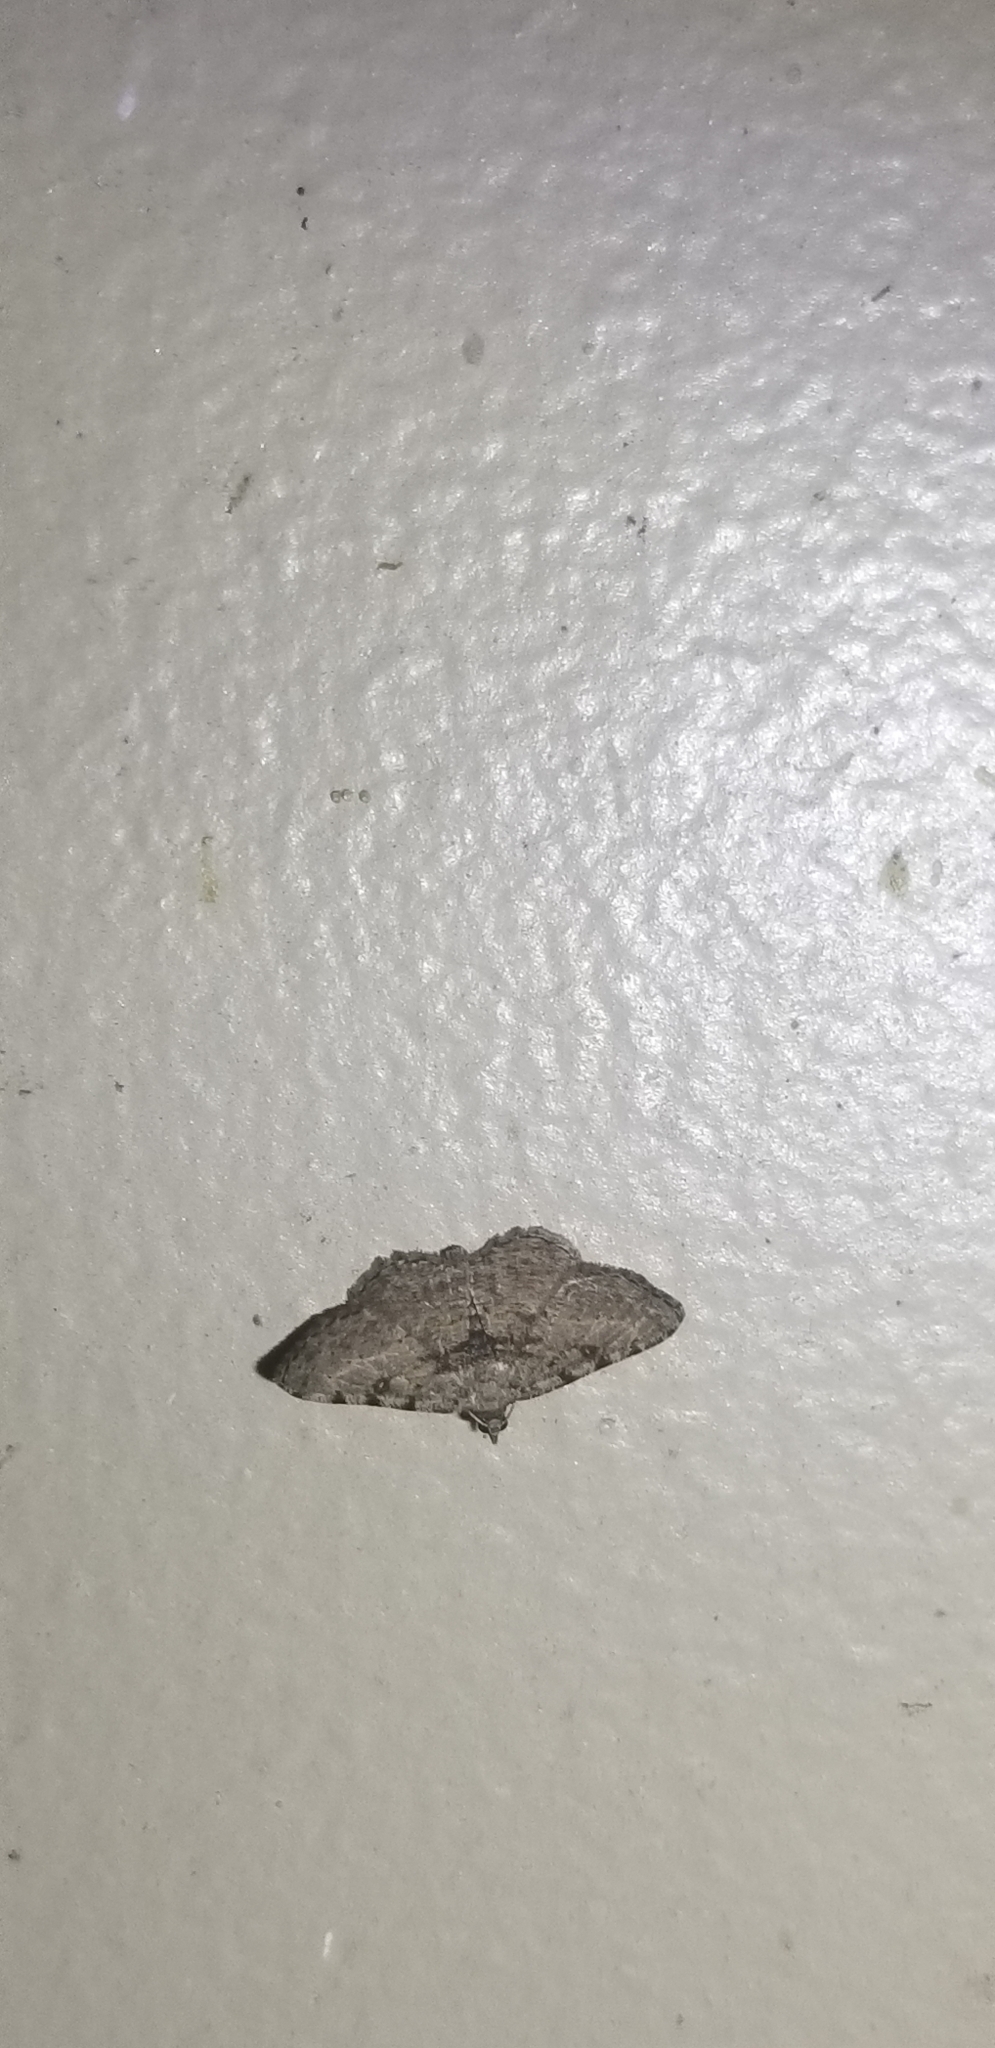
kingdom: Animalia
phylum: Arthropoda
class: Insecta
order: Lepidoptera
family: Geometridae
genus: Digrammia
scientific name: Digrammia gnophosaria
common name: Hollow-spotted angle
